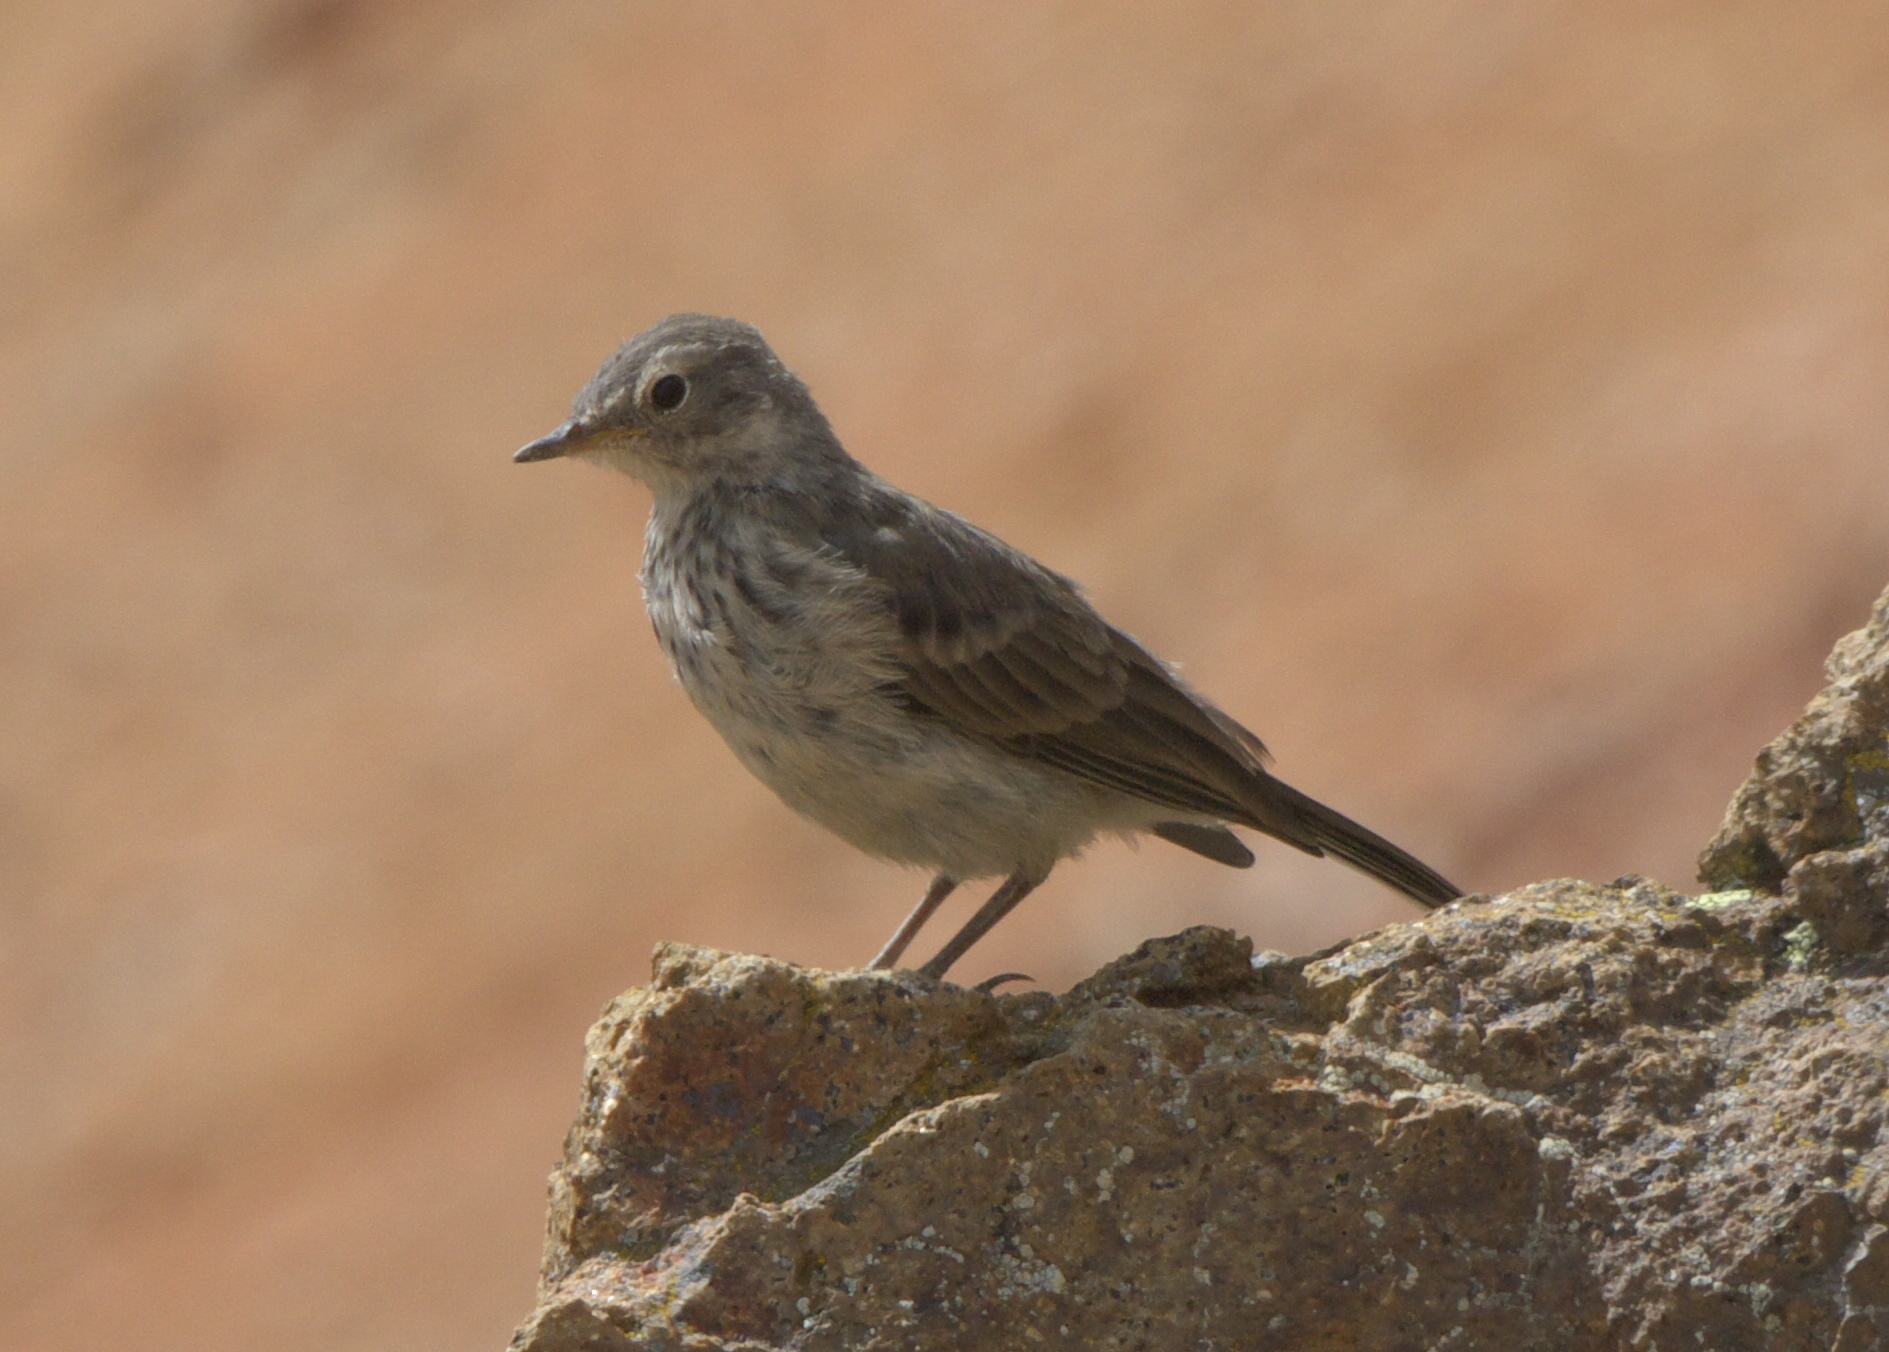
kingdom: Animalia
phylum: Chordata
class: Aves
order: Passeriformes
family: Motacillidae
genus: Anthus
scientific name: Anthus rubescens
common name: Buff-bellied pipit
